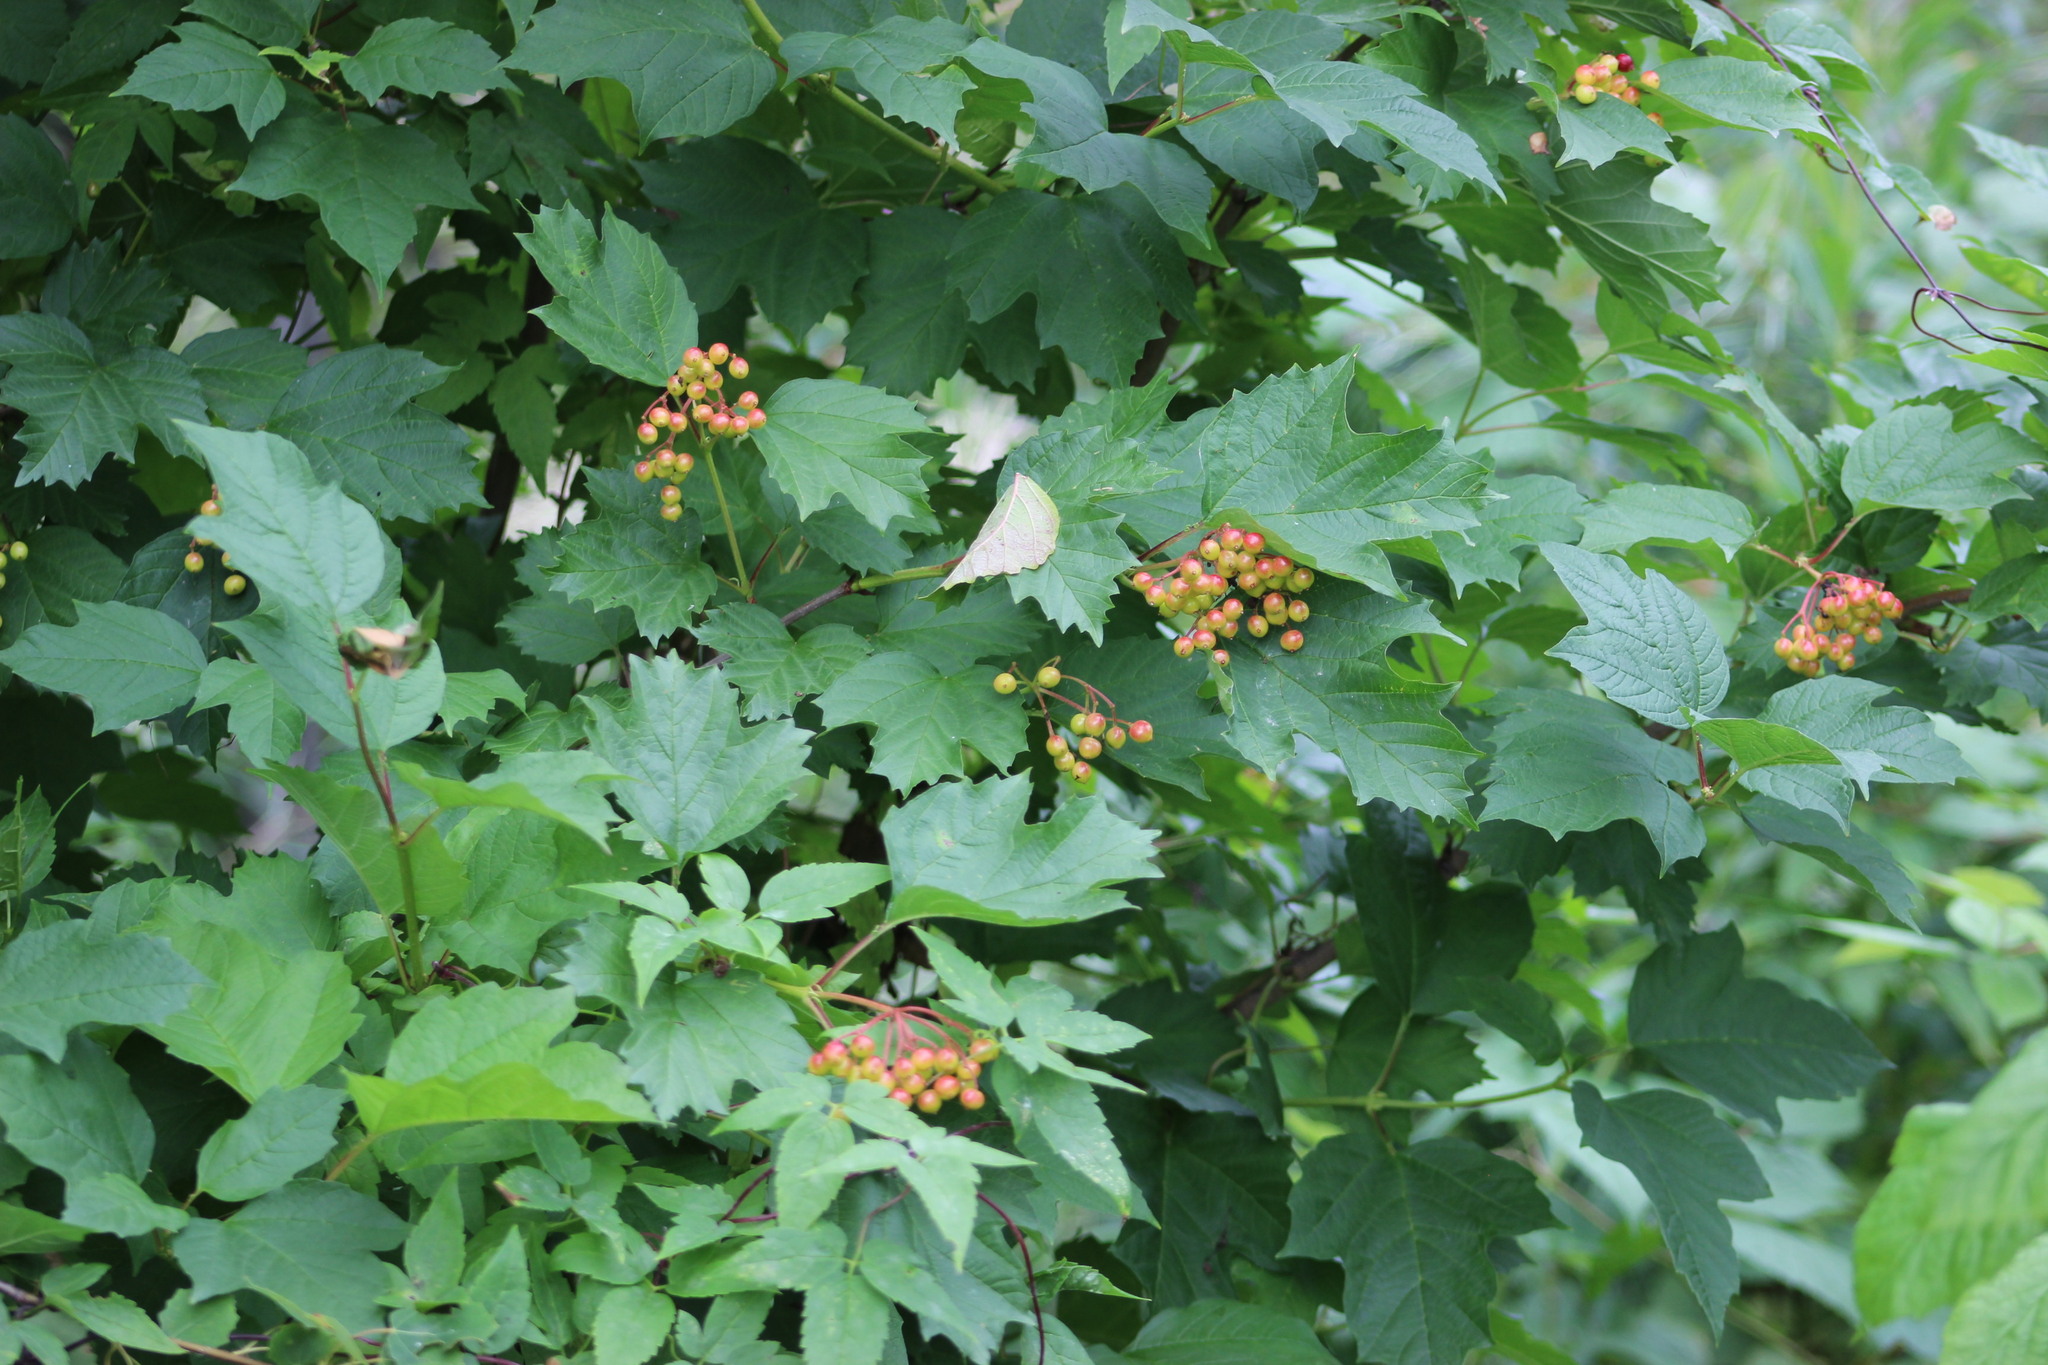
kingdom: Plantae
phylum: Tracheophyta
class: Magnoliopsida
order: Dipsacales
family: Viburnaceae
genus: Viburnum
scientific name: Viburnum opulus
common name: Guelder-rose
